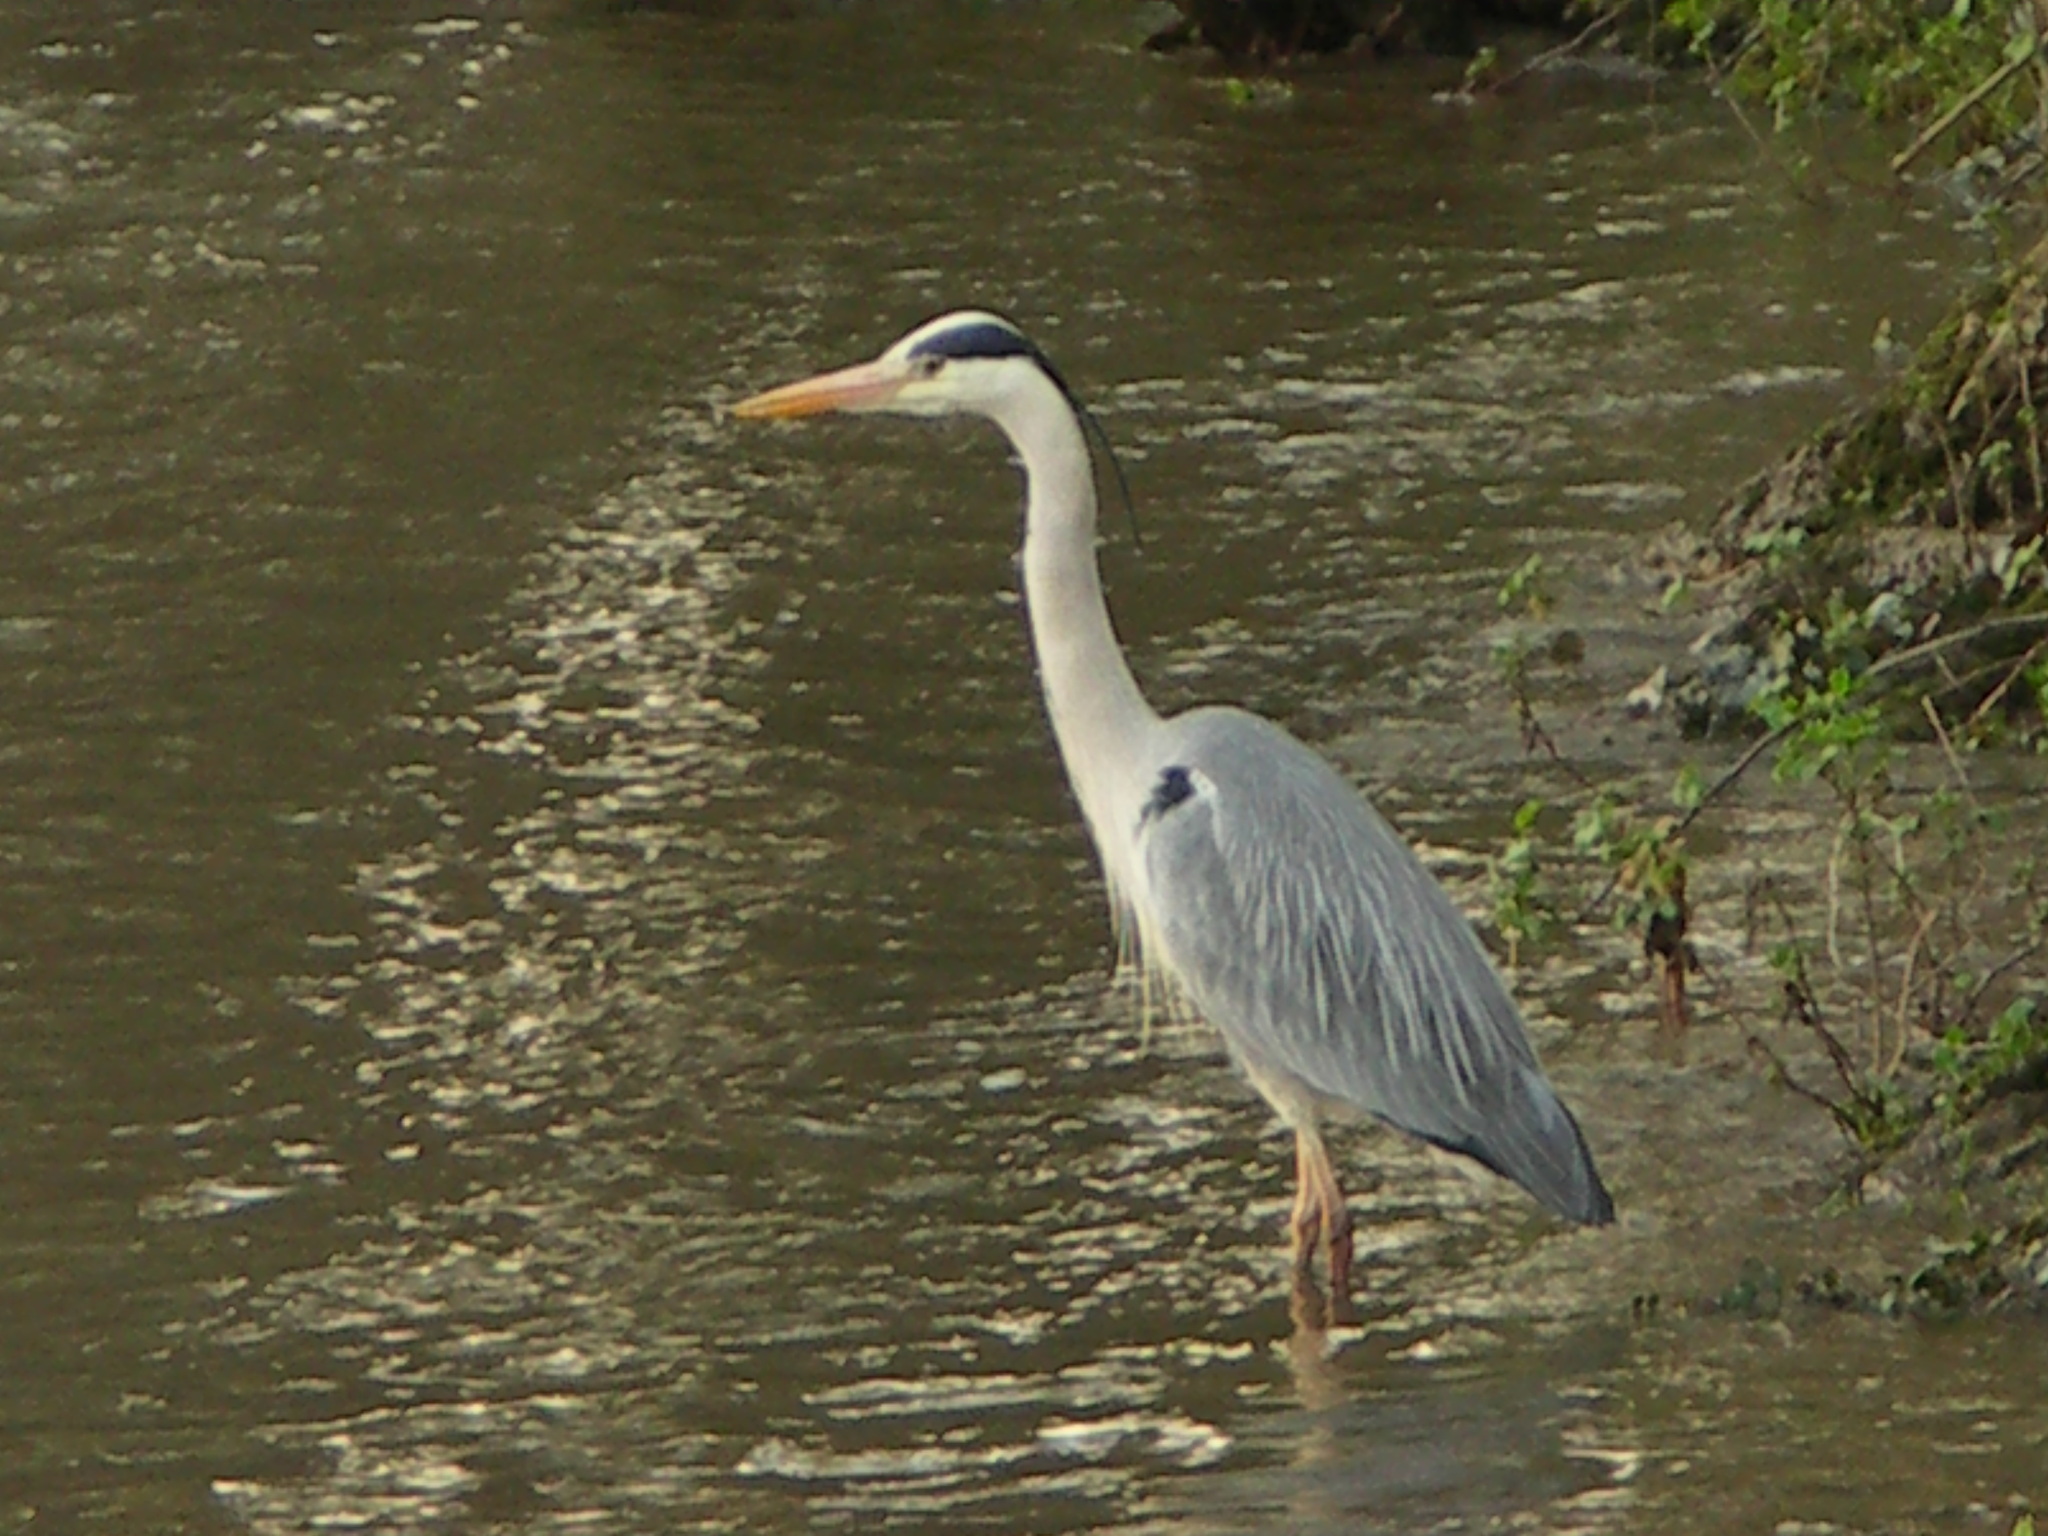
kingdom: Animalia
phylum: Chordata
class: Aves
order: Pelecaniformes
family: Ardeidae
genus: Ardea
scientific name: Ardea cinerea
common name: Grey heron
